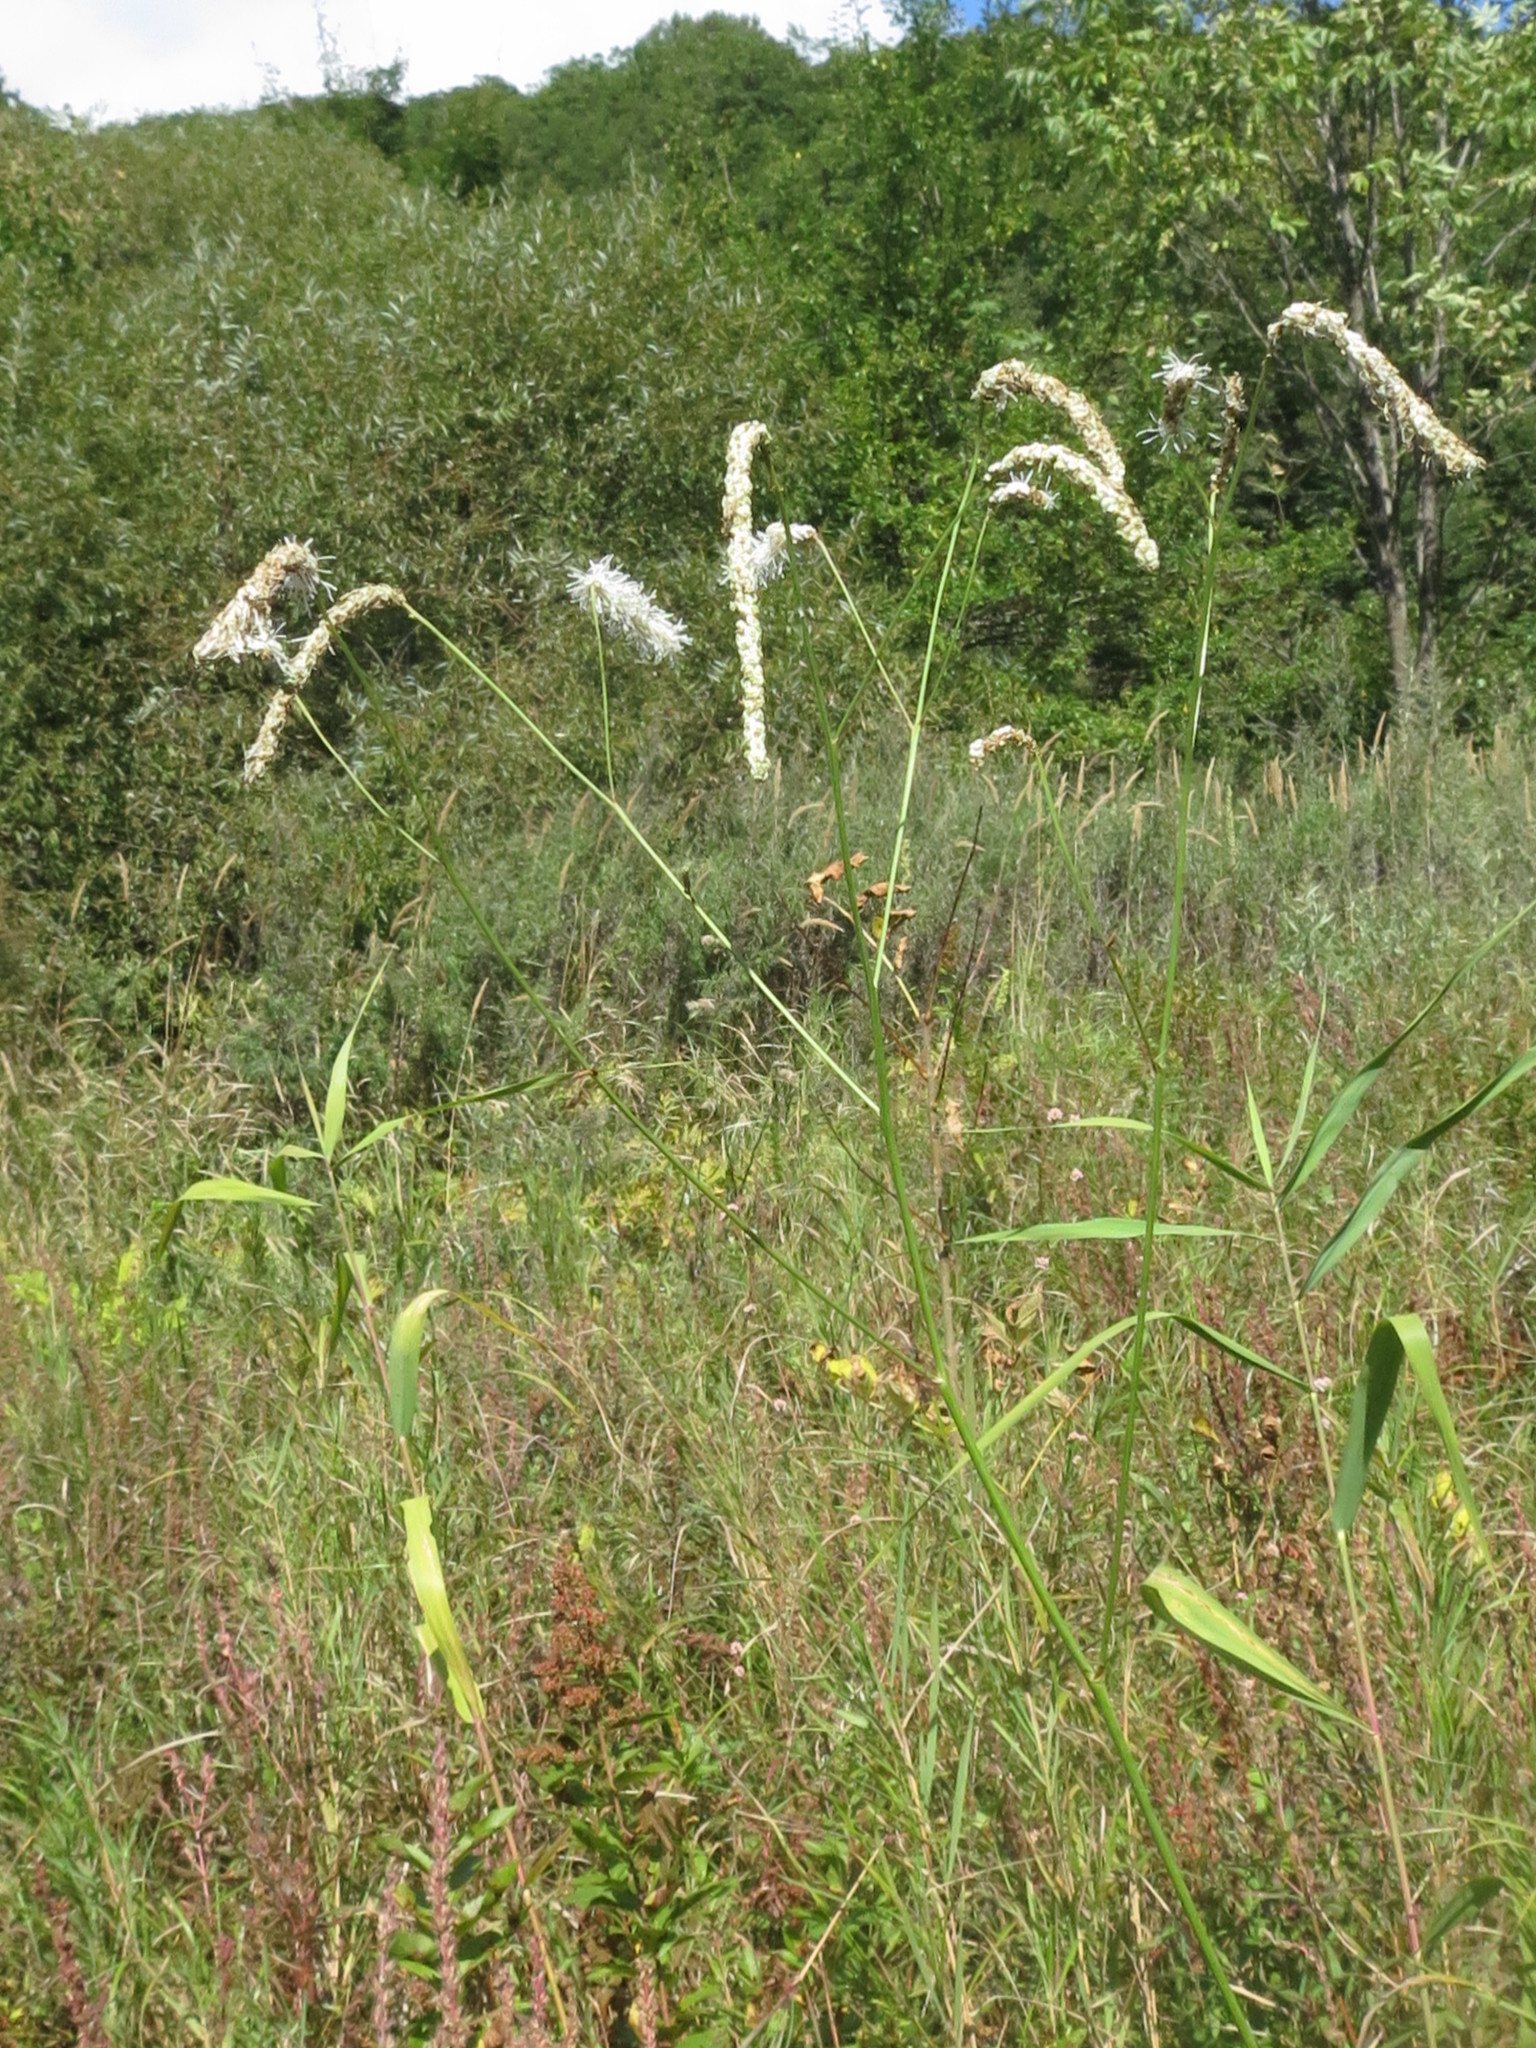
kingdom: Plantae
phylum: Tracheophyta
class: Magnoliopsida
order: Rosales
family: Rosaceae
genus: Poterium
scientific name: Poterium tenuifolium
